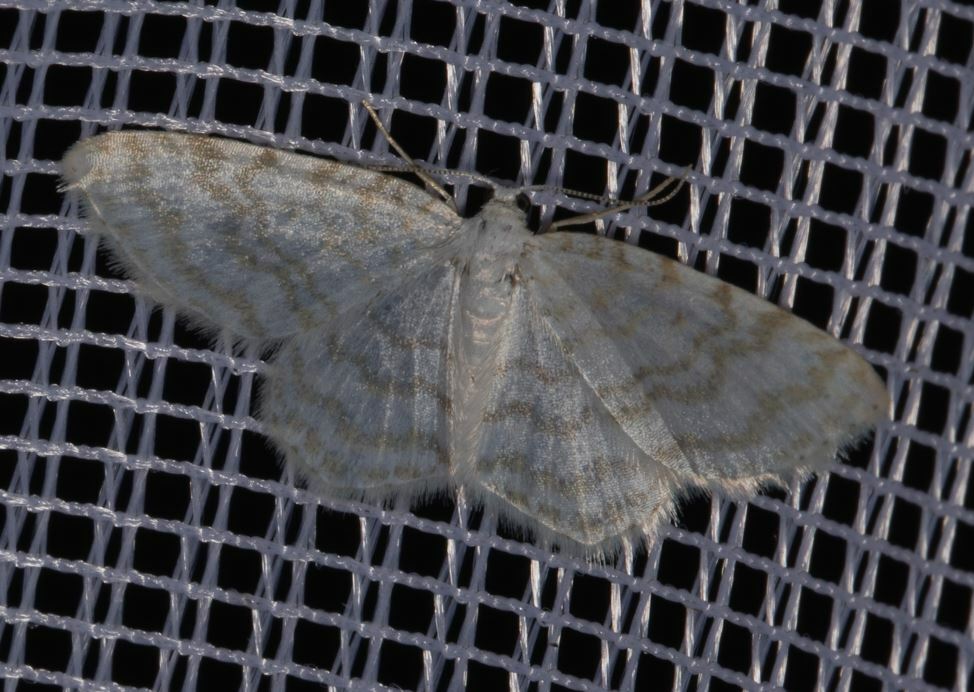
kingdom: Animalia
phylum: Arthropoda
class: Insecta
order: Lepidoptera
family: Geometridae
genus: Asthena
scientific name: Asthena albulata
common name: Small white wave
